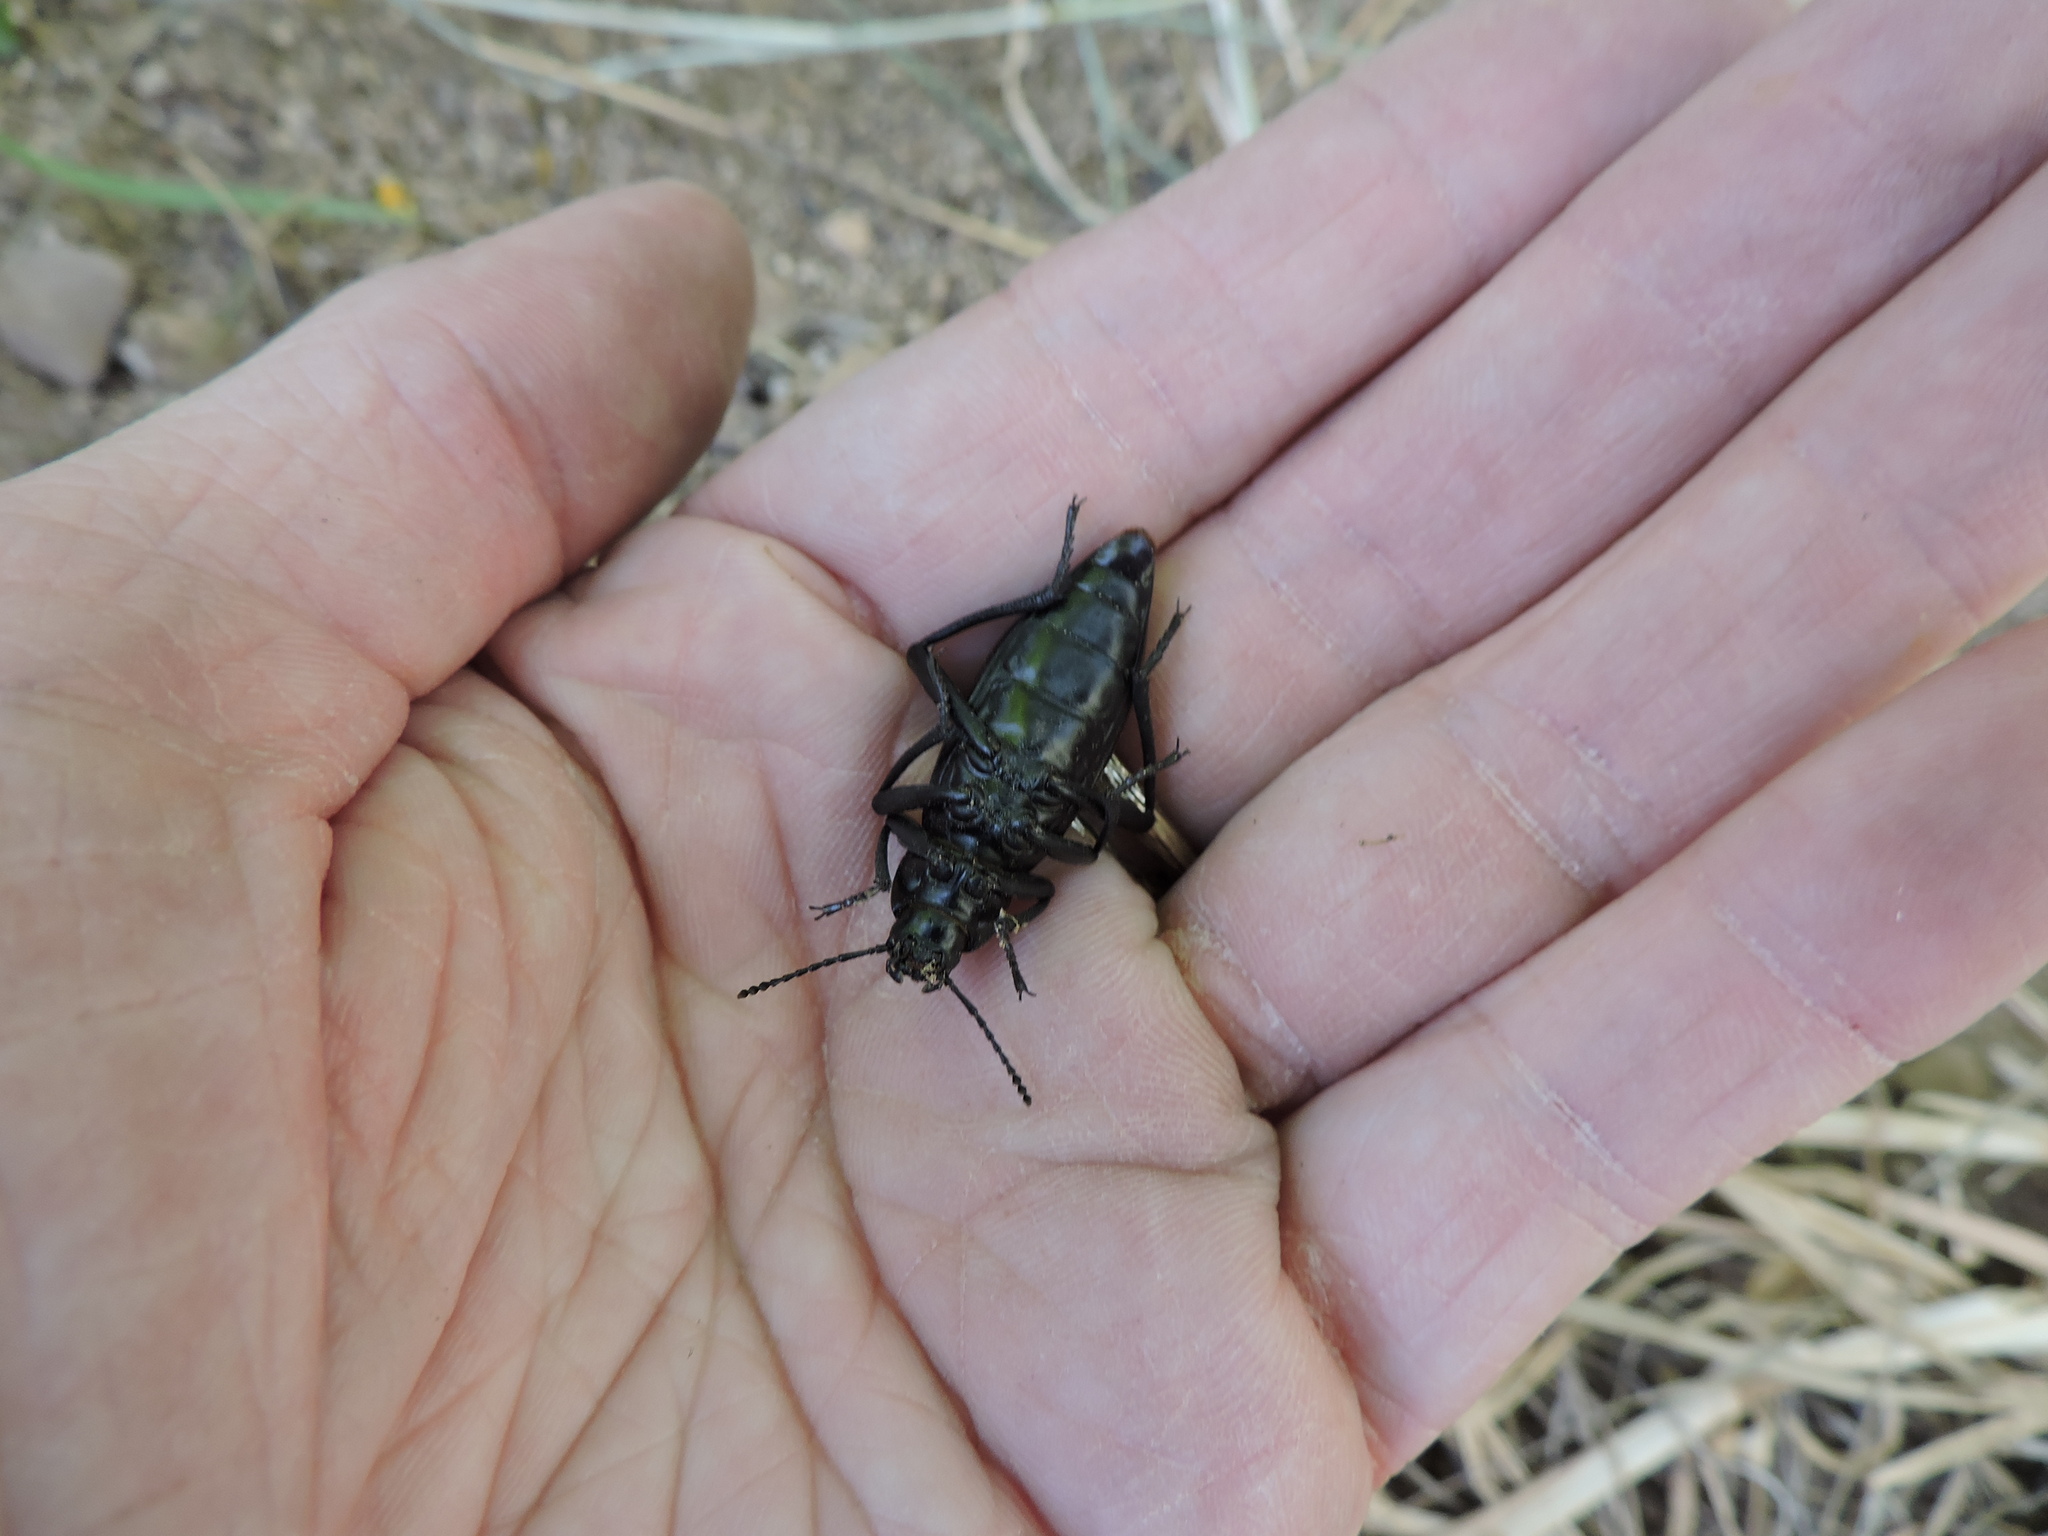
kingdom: Animalia
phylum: Arthropoda
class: Insecta
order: Coleoptera
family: Tenebrionidae
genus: Eleodes
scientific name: Eleodes longicollis
